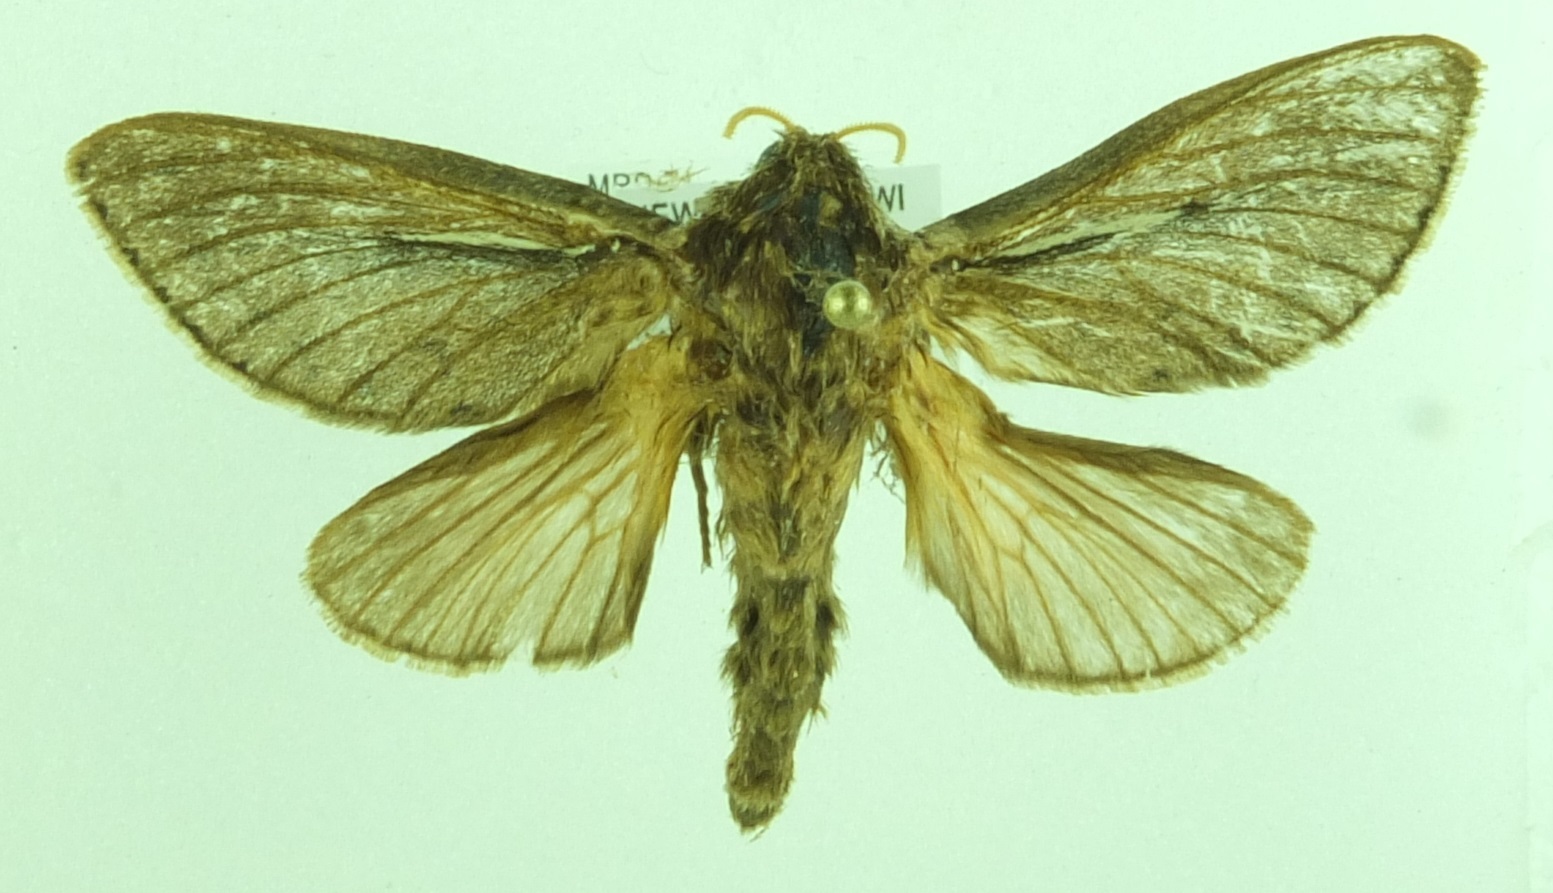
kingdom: Animalia
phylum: Arthropoda
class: Insecta
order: Lepidoptera
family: Hepialidae
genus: Wiseana
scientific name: Wiseana umbraculatus
